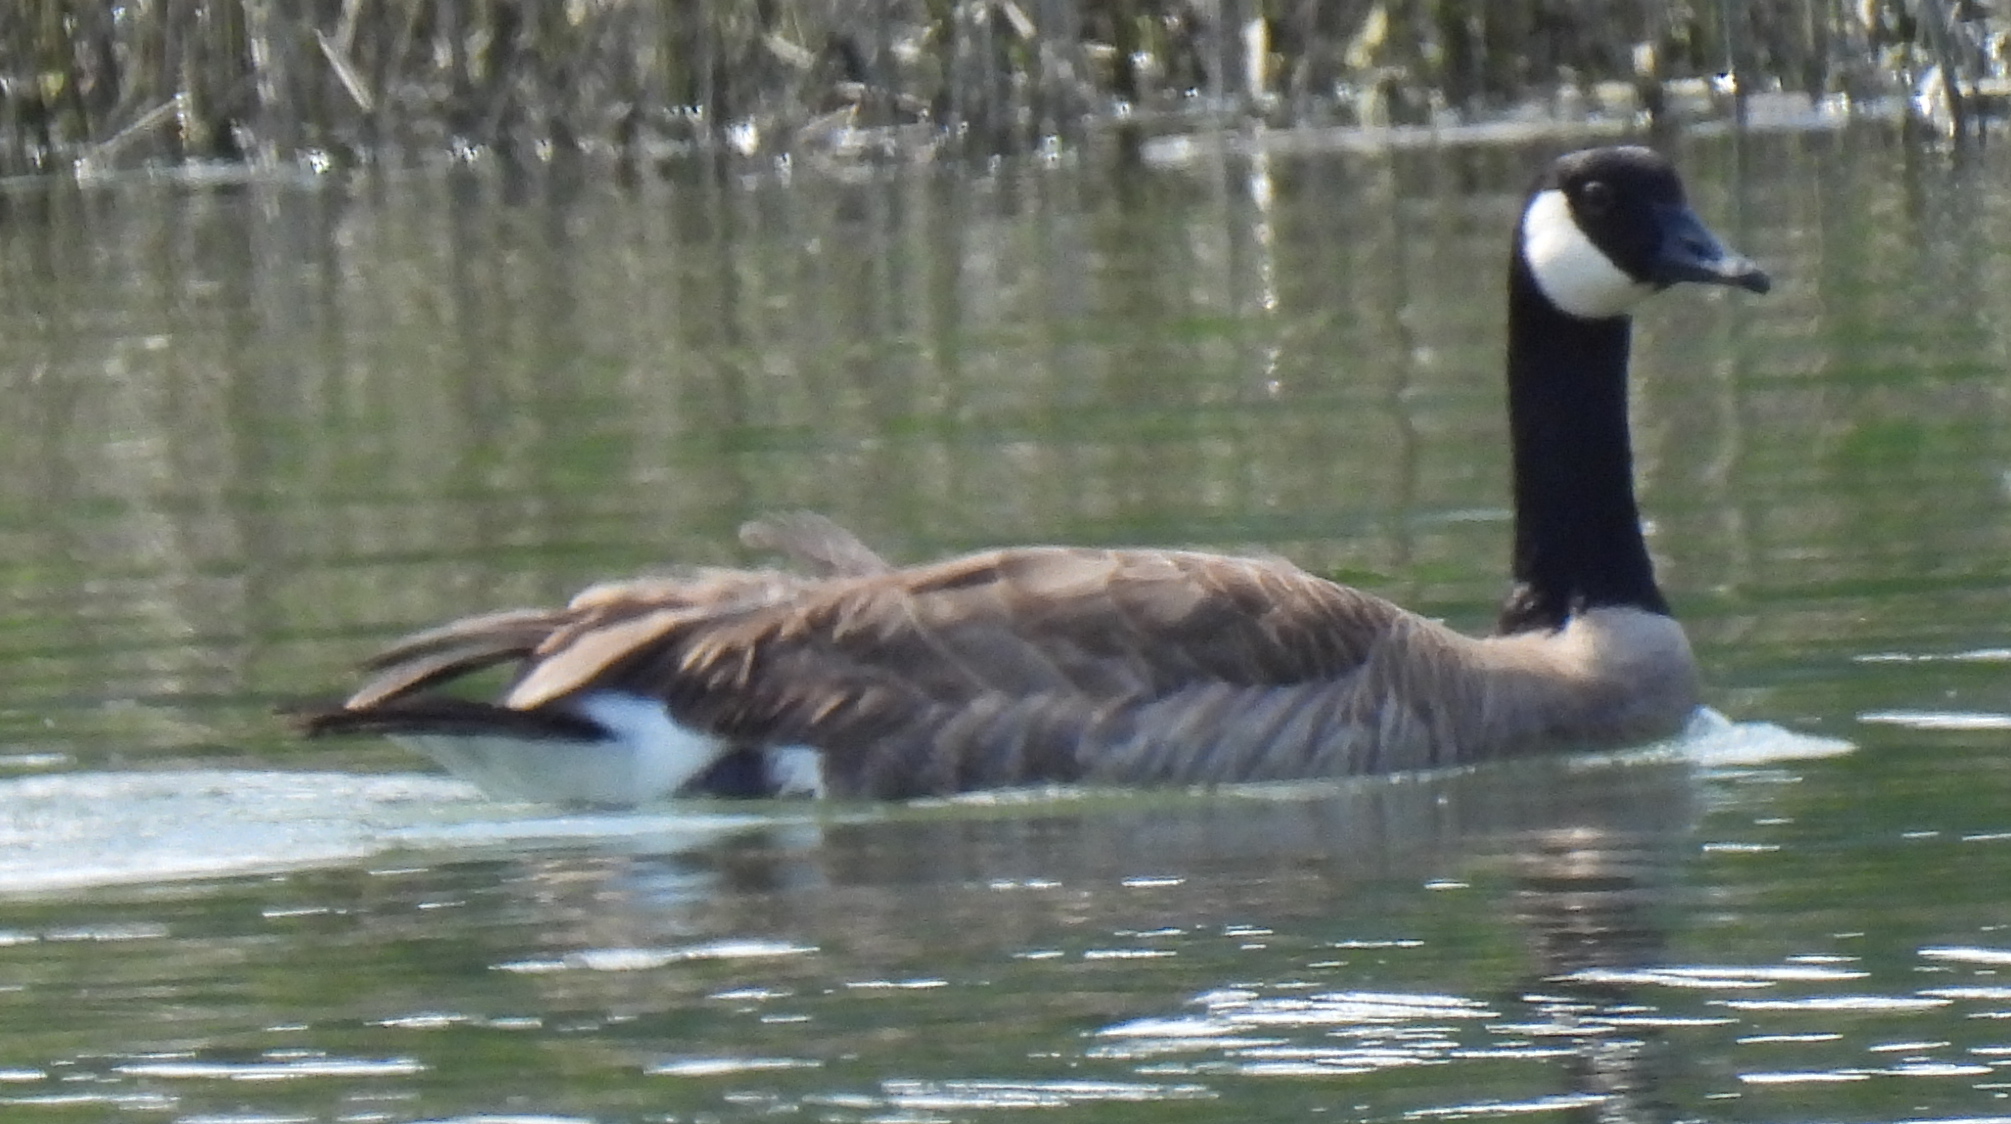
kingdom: Animalia
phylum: Chordata
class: Aves
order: Anseriformes
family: Anatidae
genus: Branta
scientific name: Branta canadensis
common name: Canada goose
